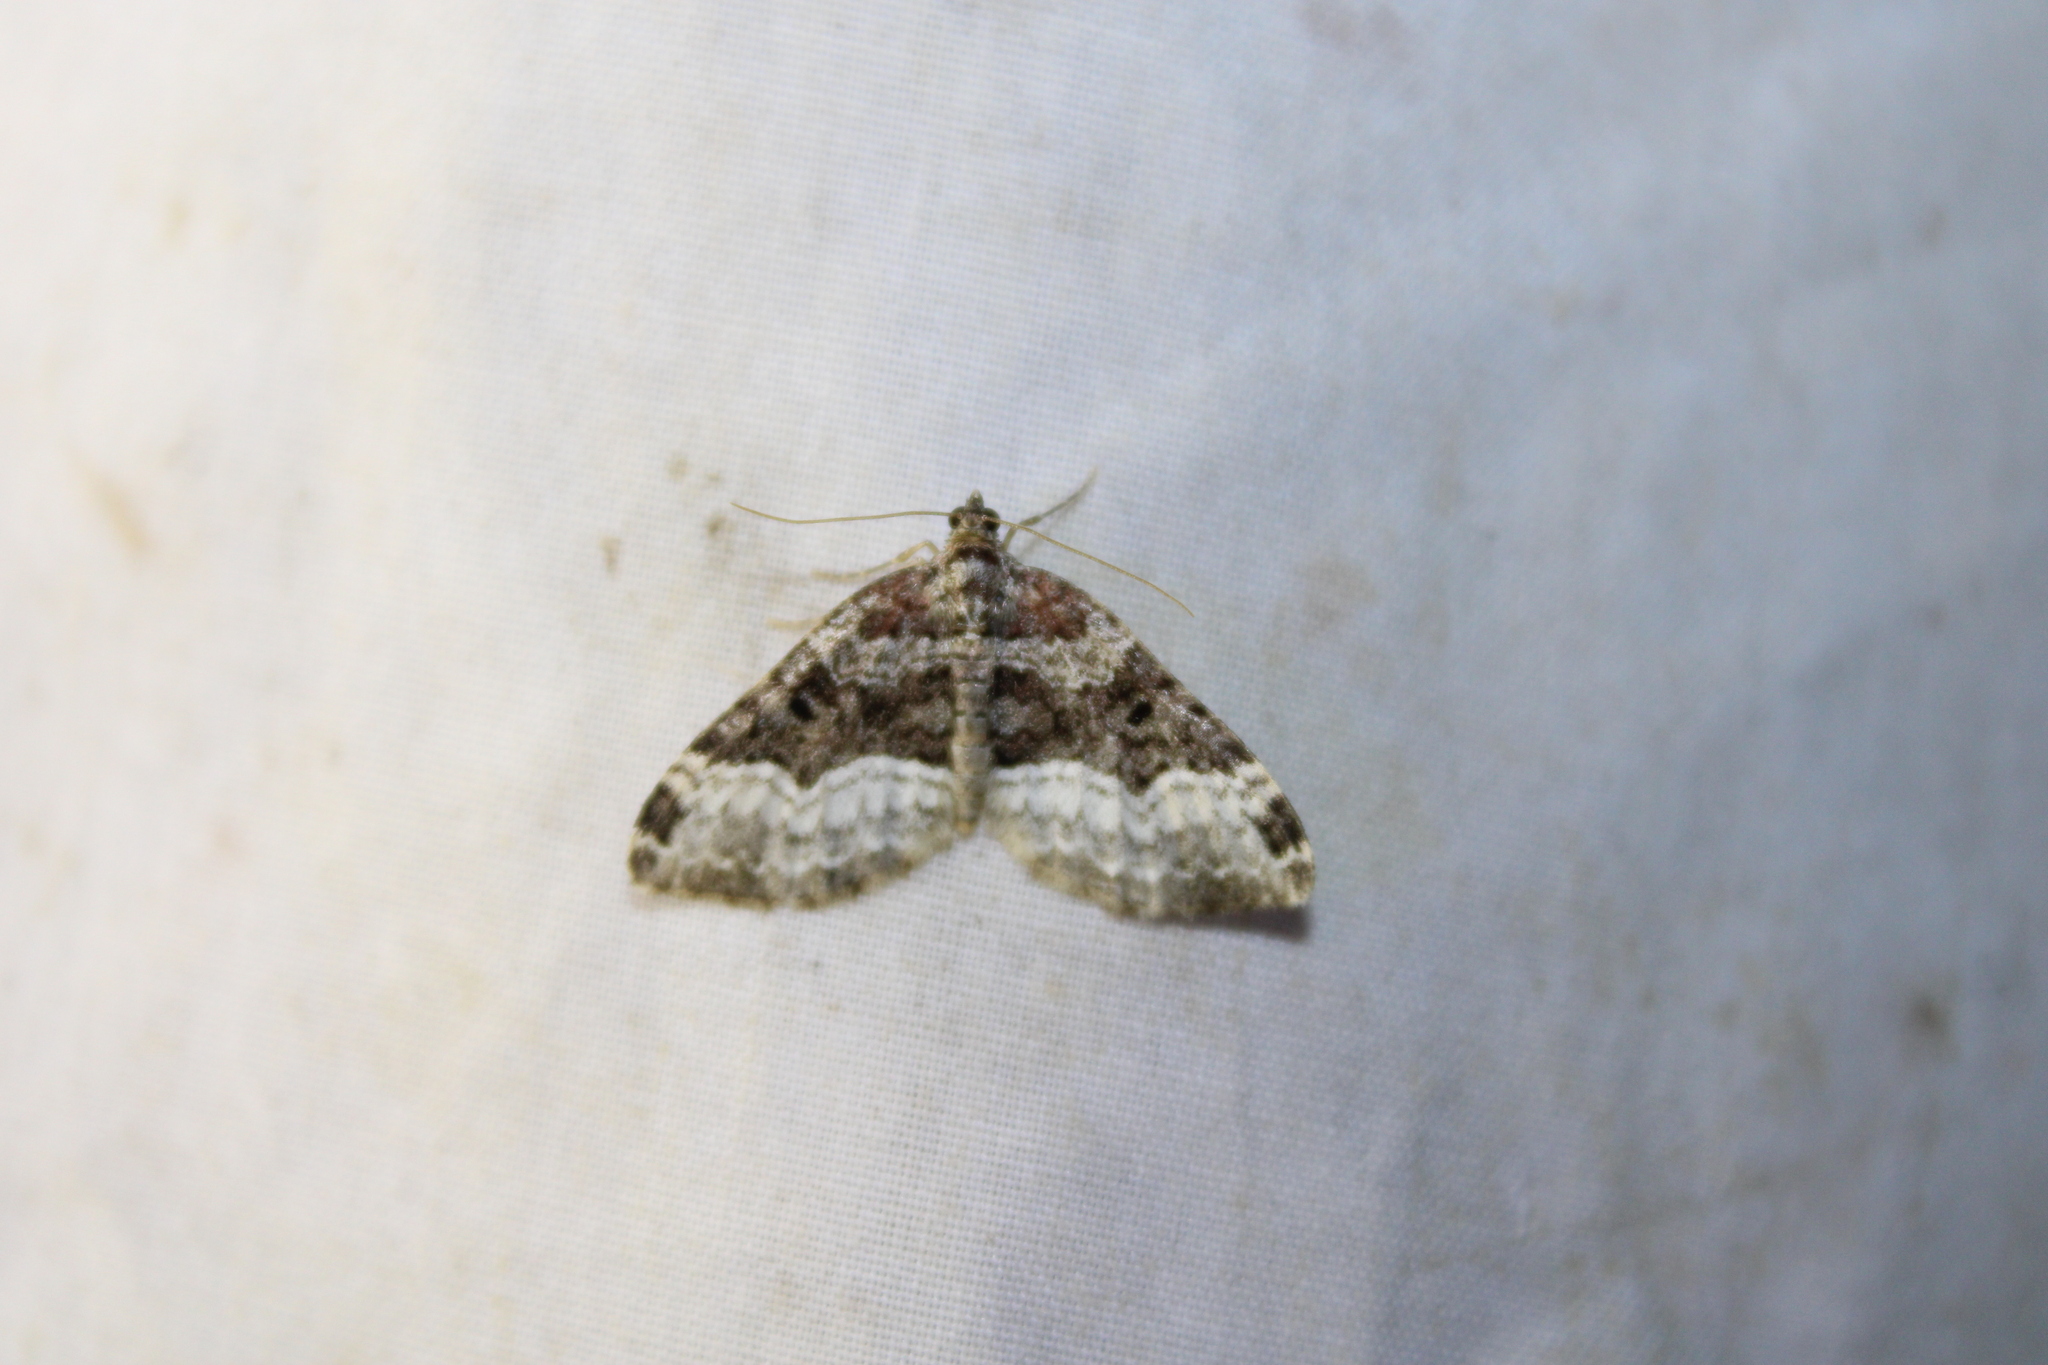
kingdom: Animalia
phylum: Arthropoda
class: Insecta
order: Lepidoptera
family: Geometridae
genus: Euphyia
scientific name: Euphyia intermediata
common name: Sharp-angled carpet
